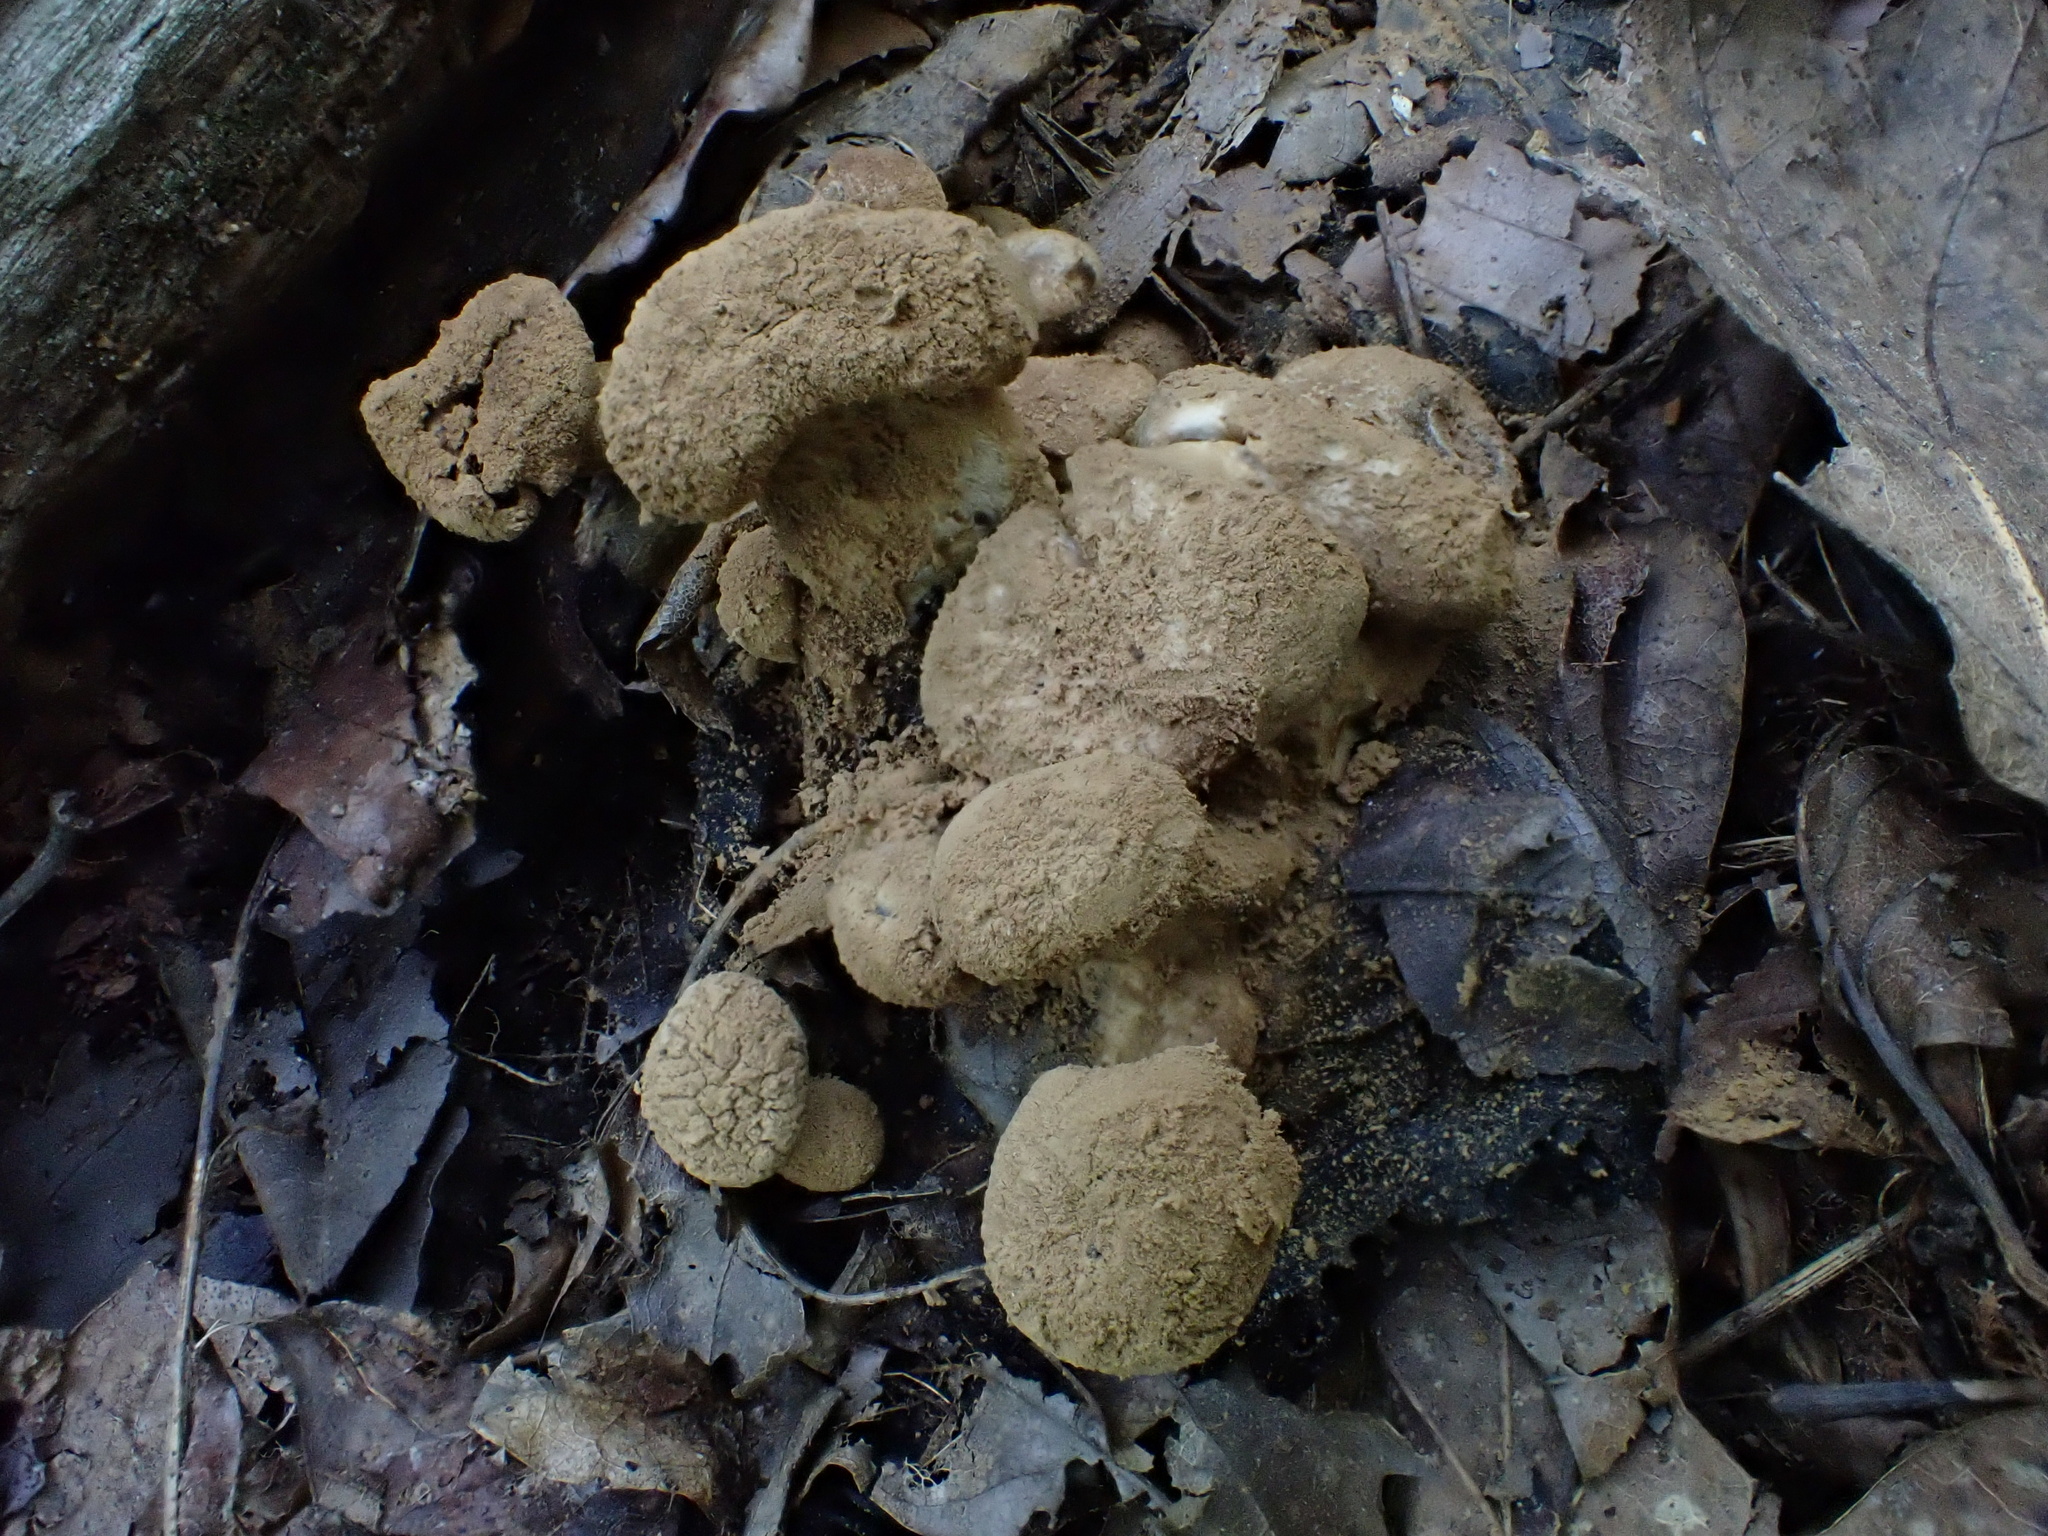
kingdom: Fungi
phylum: Basidiomycota
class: Agaricomycetes
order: Agaricales
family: Lyophyllaceae
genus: Asterophora
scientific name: Asterophora lycoperdoides
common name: Pick-a-back toadstool
